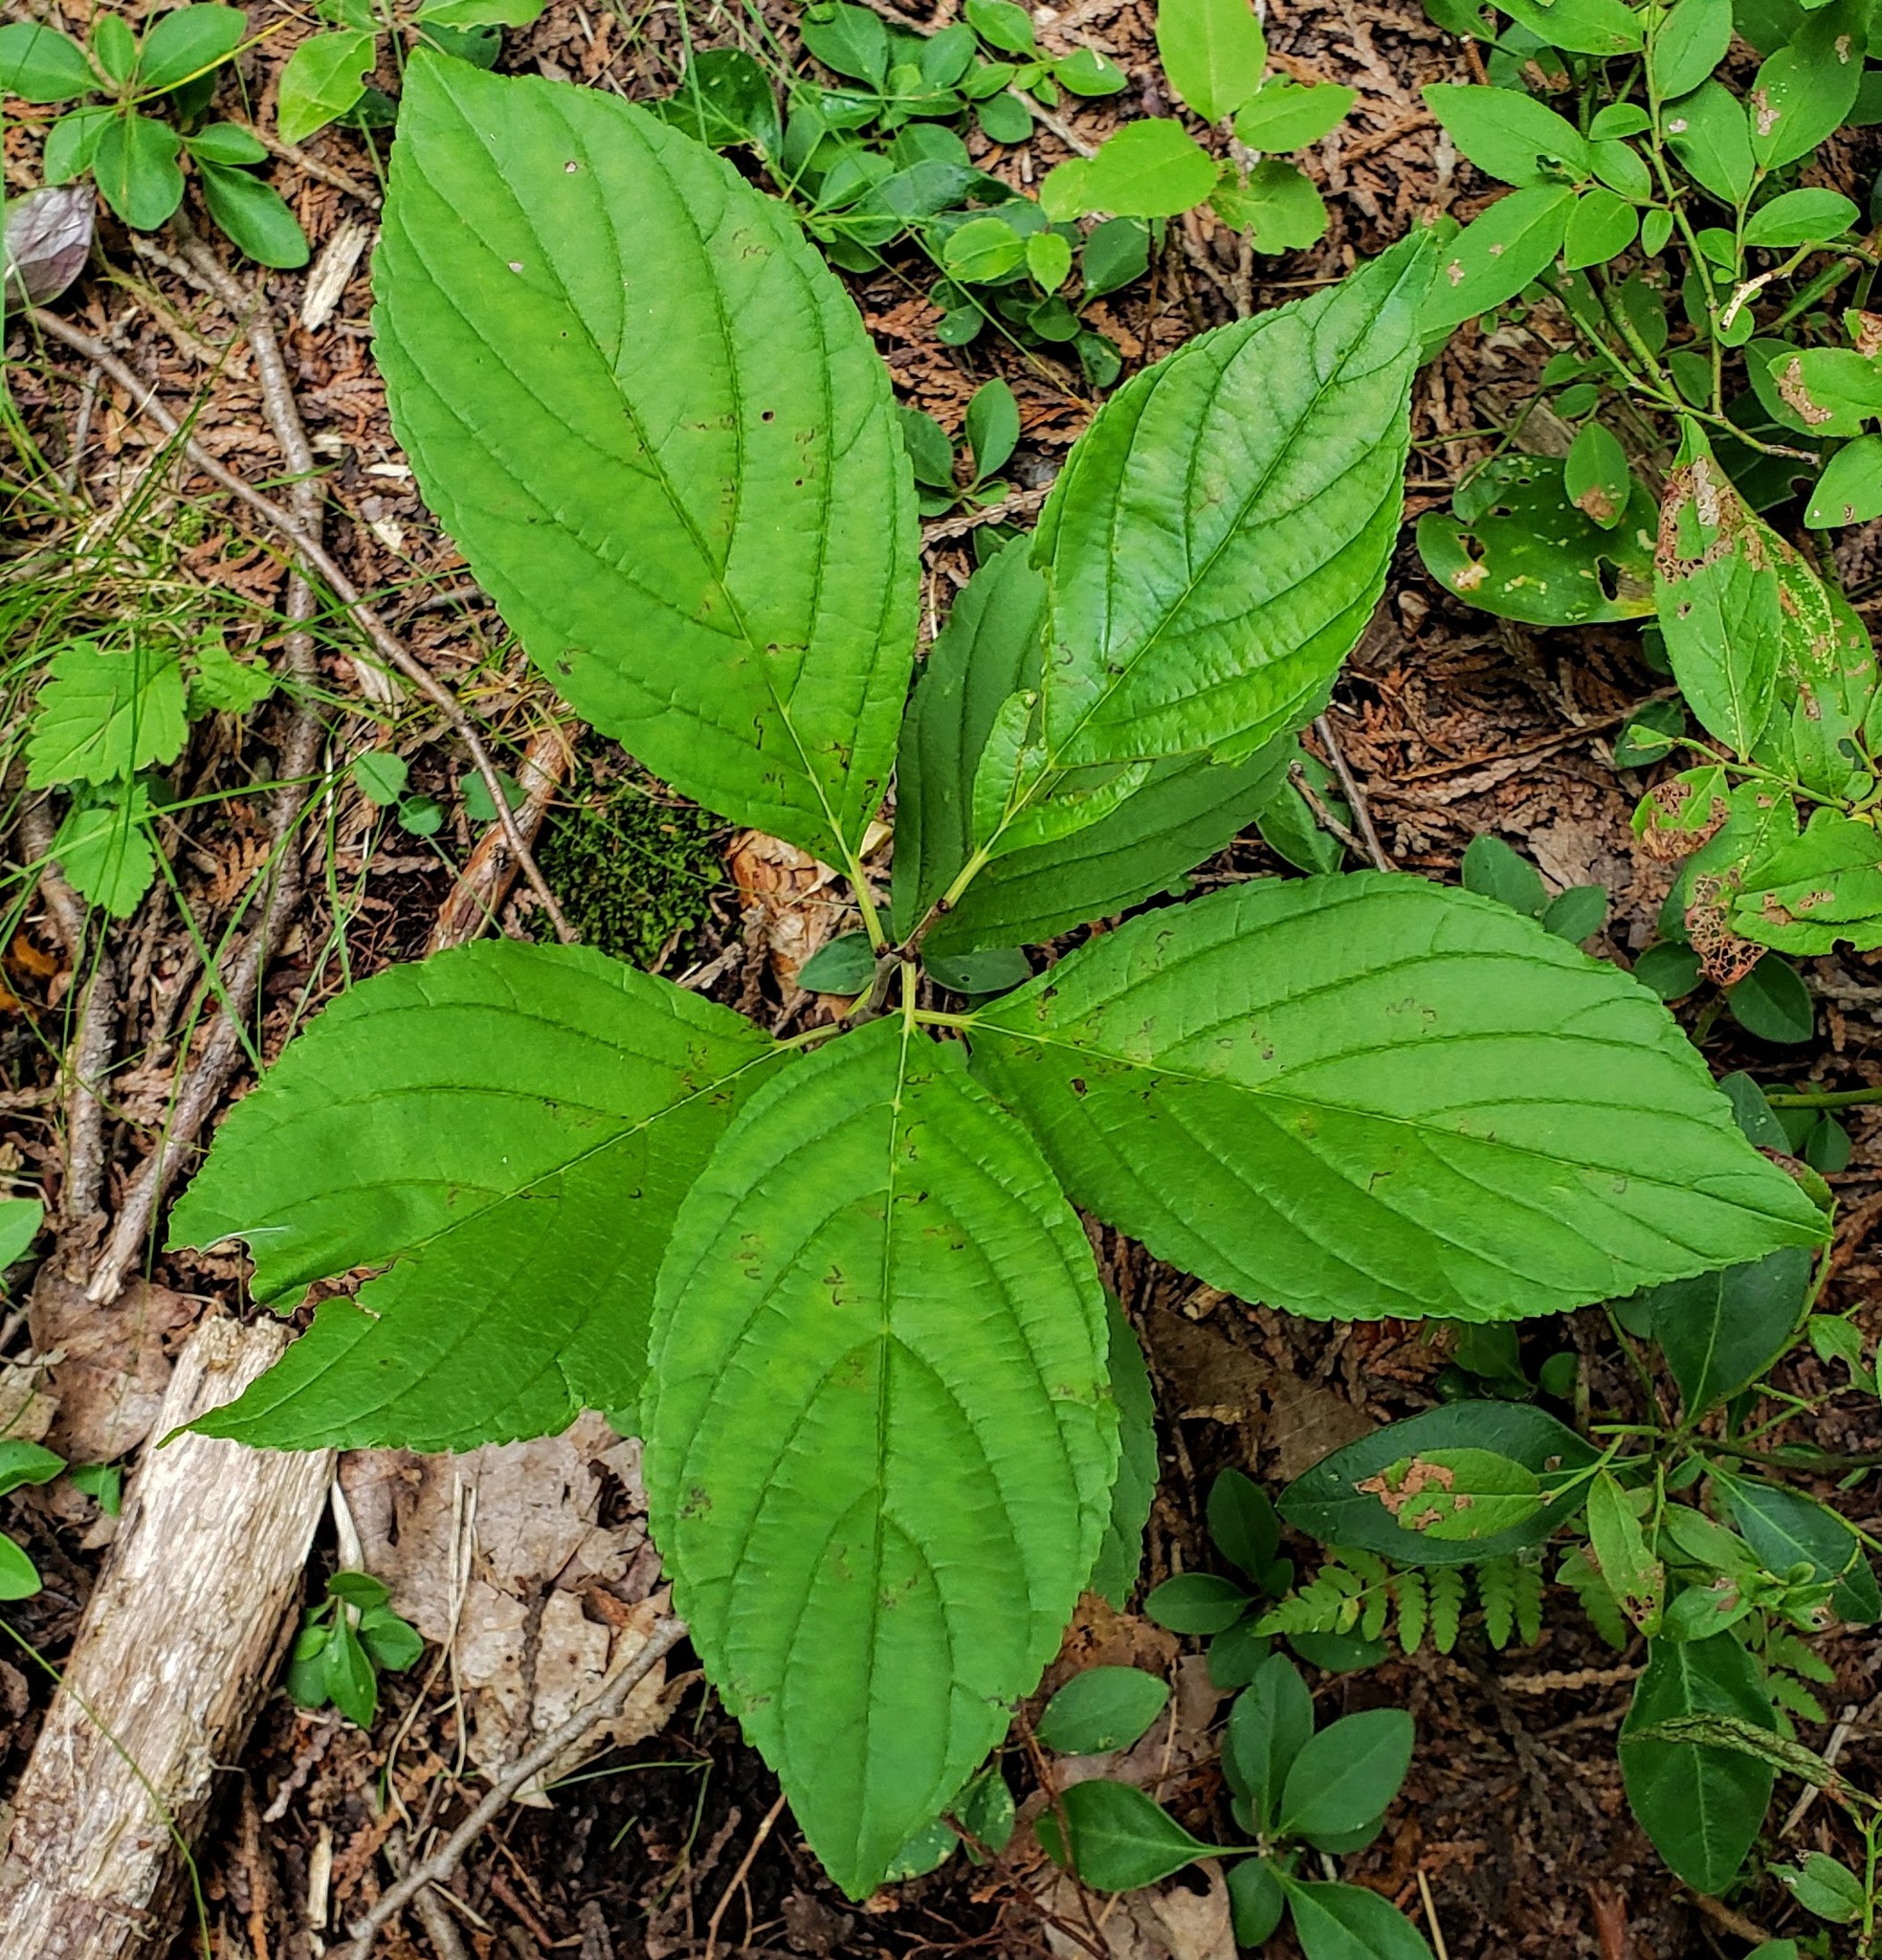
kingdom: Plantae
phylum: Tracheophyta
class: Magnoliopsida
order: Rosales
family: Rhamnaceae
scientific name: Rhamnaceae
